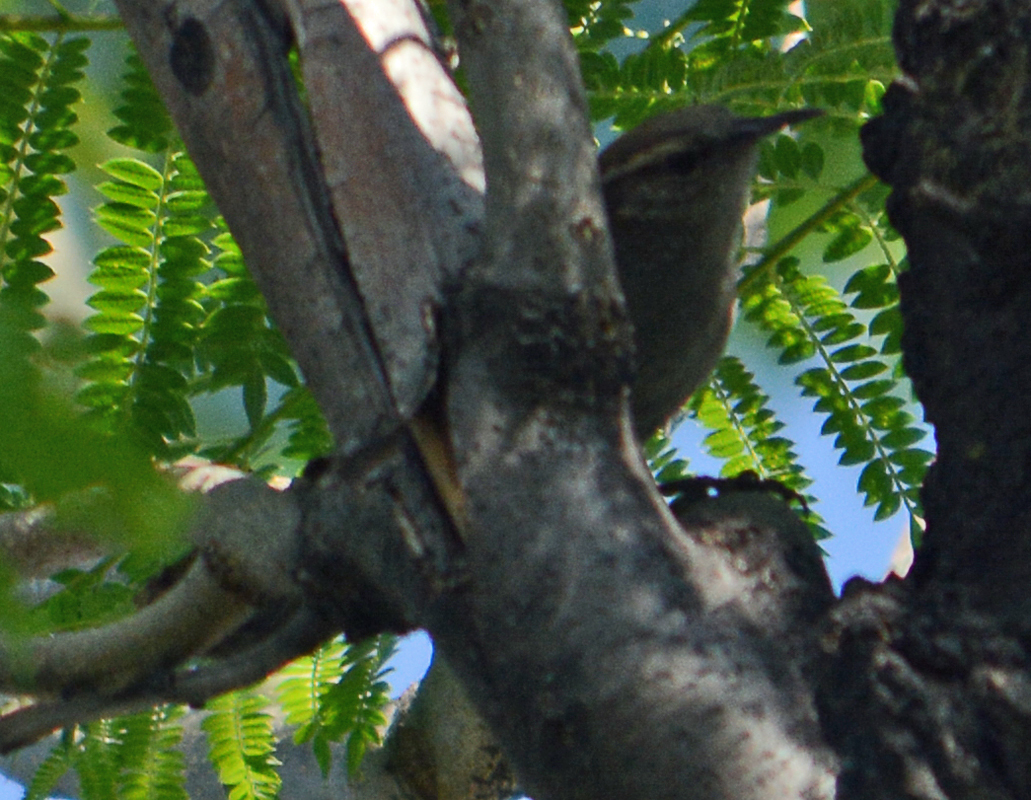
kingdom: Animalia
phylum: Chordata
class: Aves
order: Passeriformes
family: Troglodytidae
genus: Thryomanes
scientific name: Thryomanes bewickii
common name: Bewick's wren
